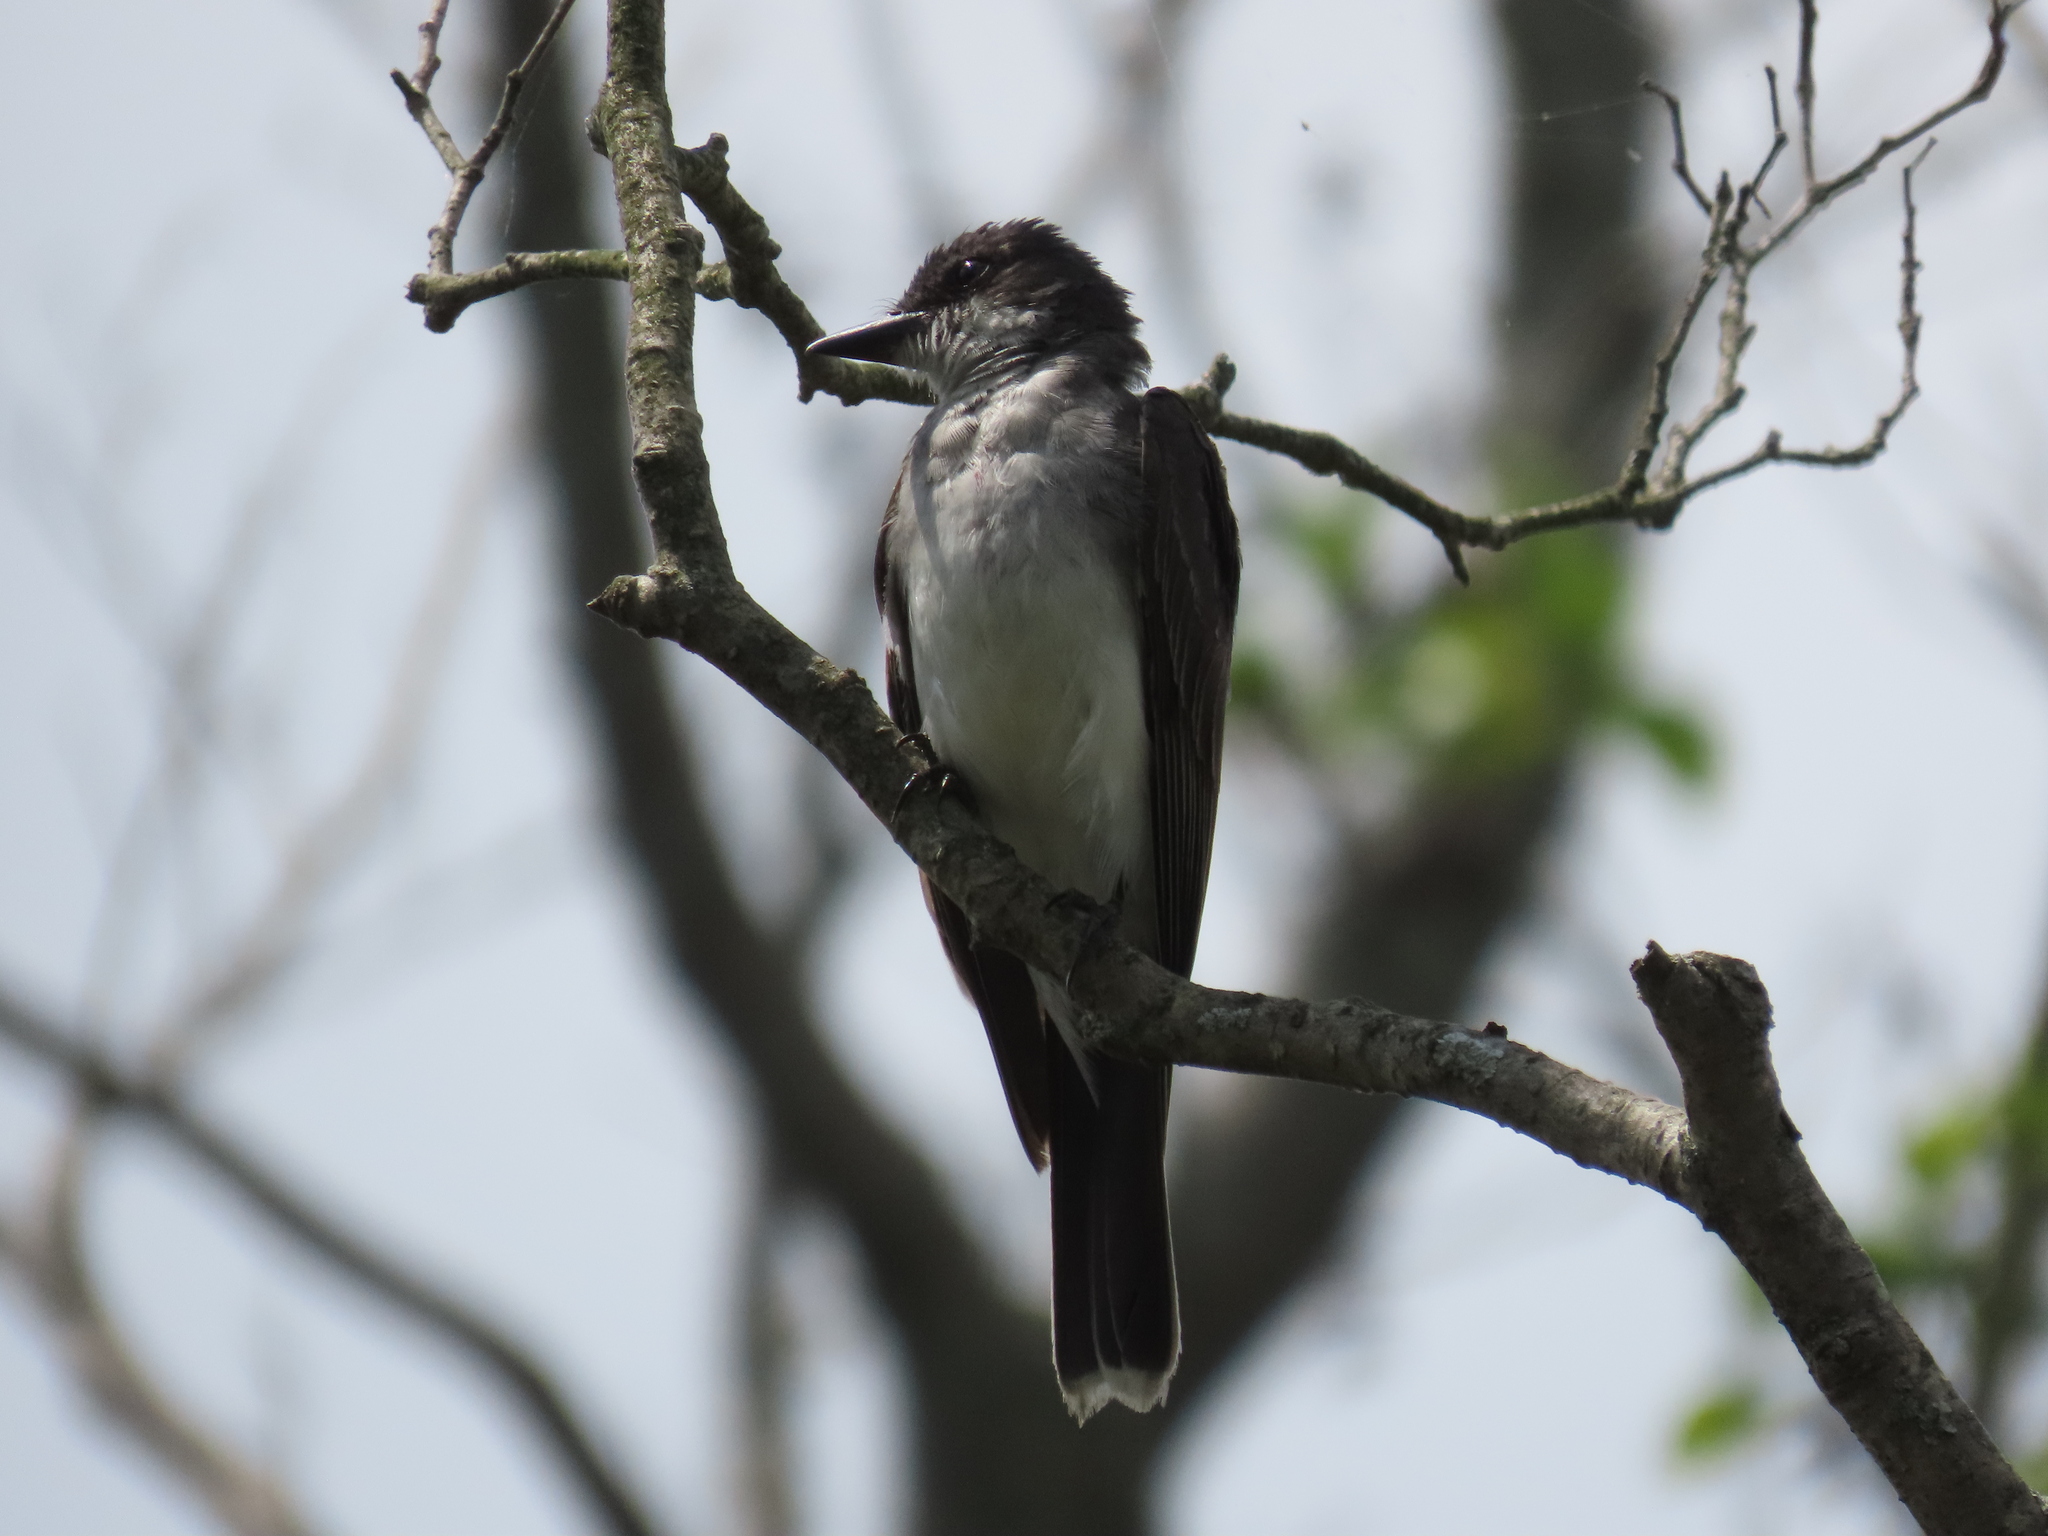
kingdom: Animalia
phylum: Chordata
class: Aves
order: Passeriformes
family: Tyrannidae
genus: Tyrannus
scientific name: Tyrannus tyrannus
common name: Eastern kingbird
